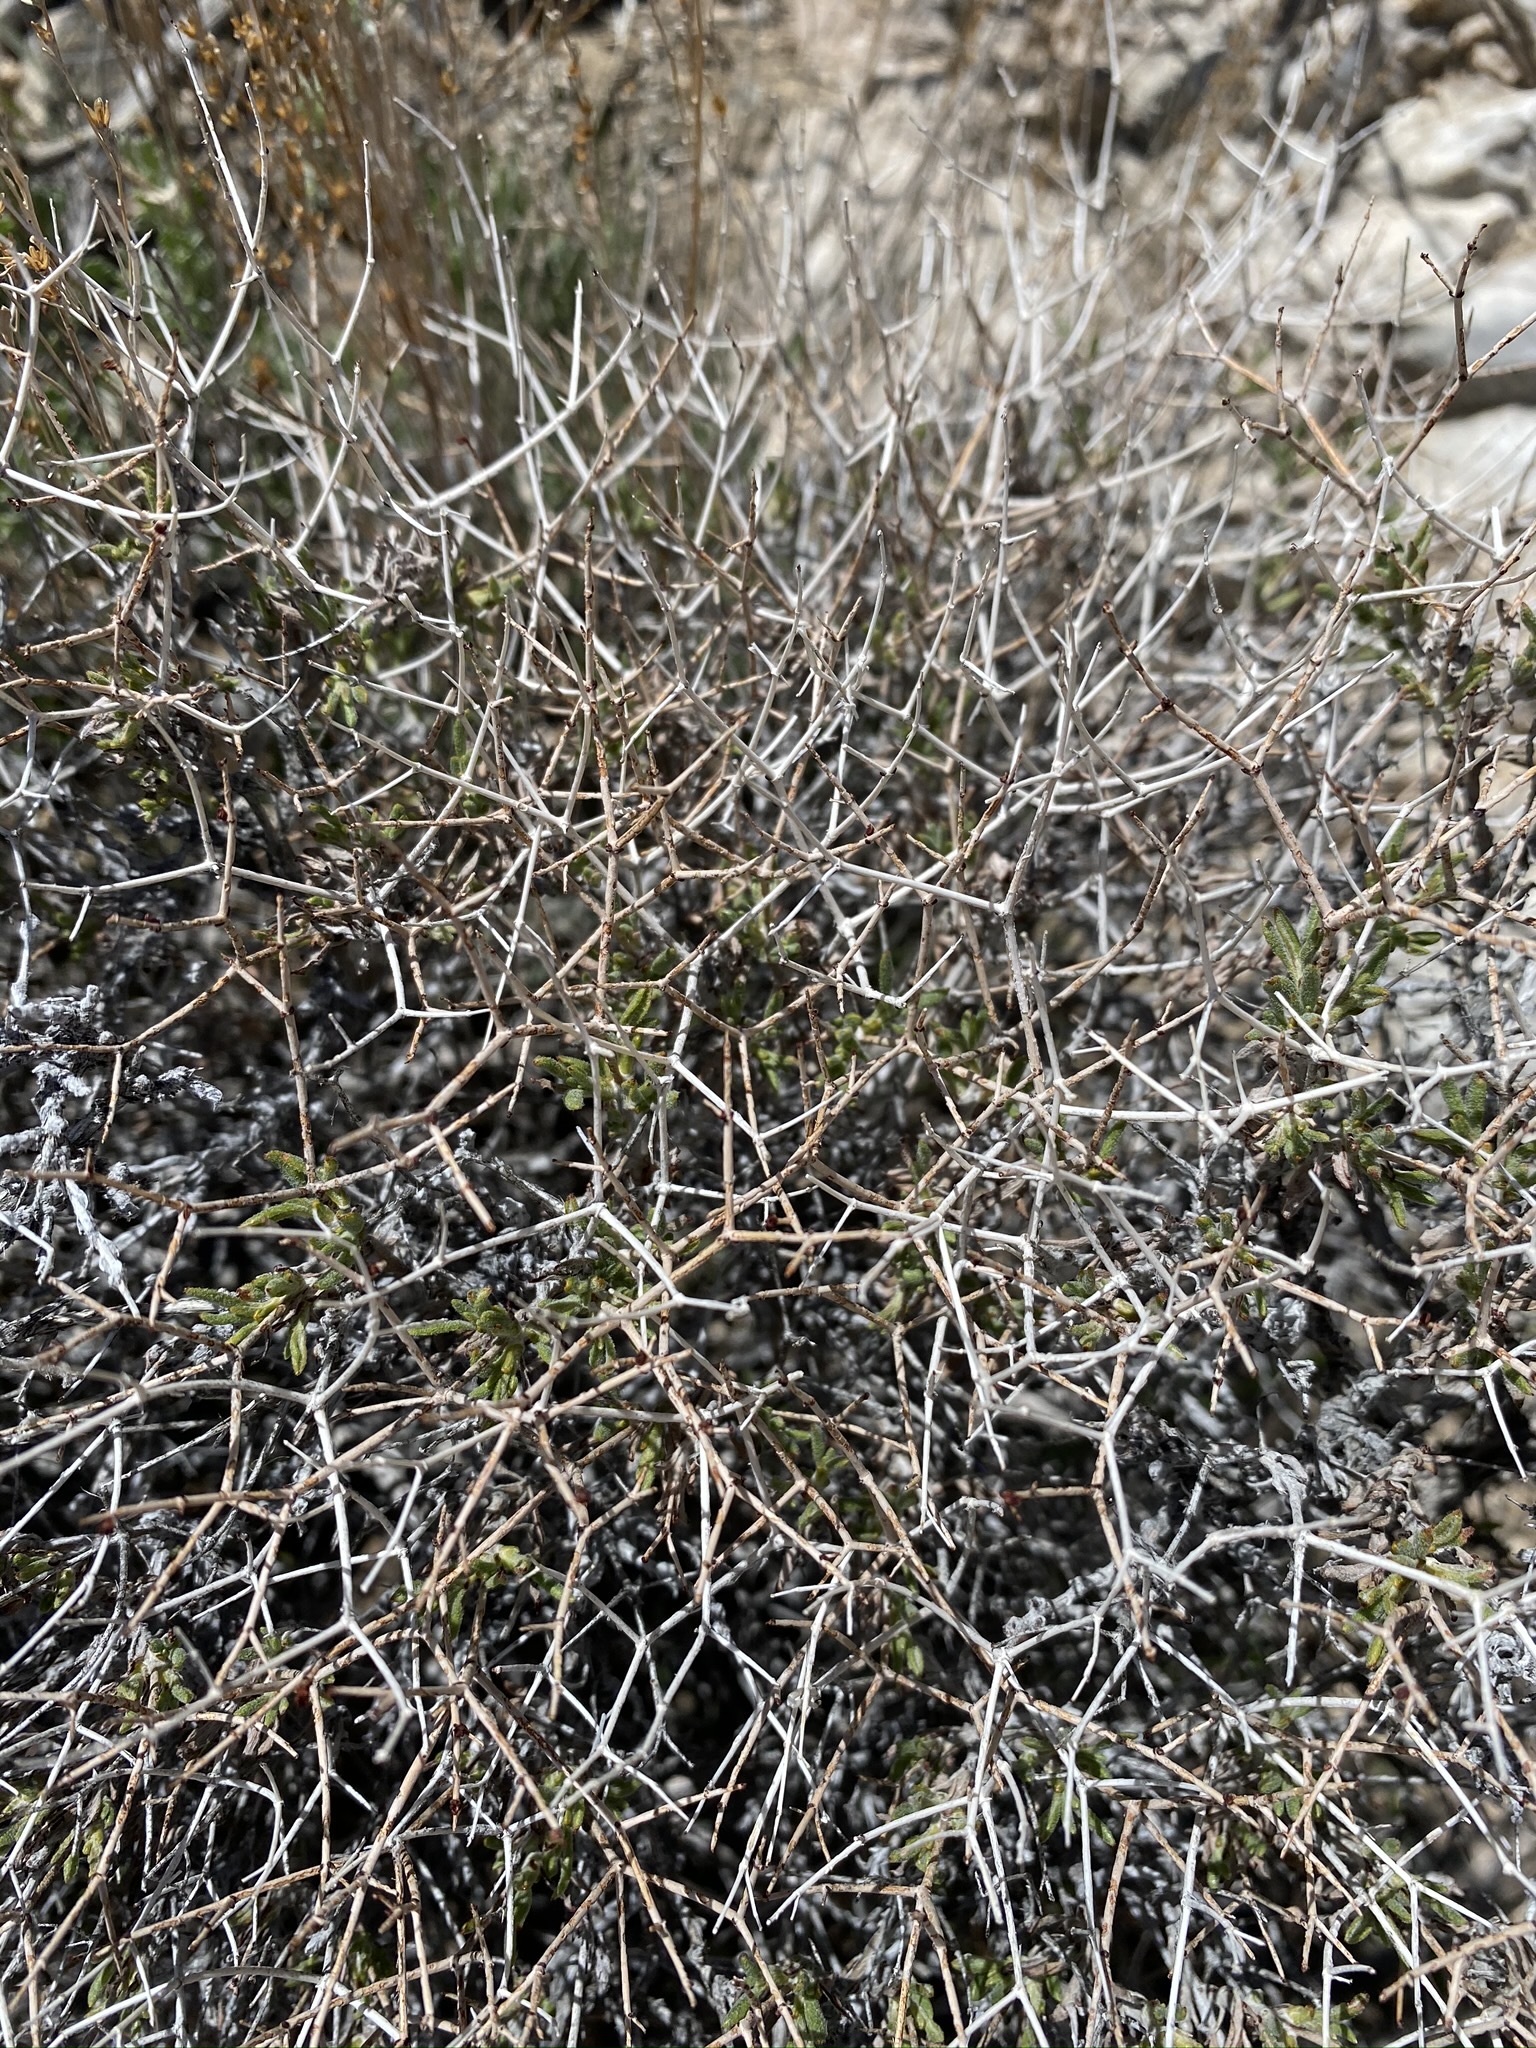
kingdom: Plantae
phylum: Tracheophyta
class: Magnoliopsida
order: Caryophyllales
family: Polygonaceae
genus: Eriogonum
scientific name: Eriogonum heermannii
